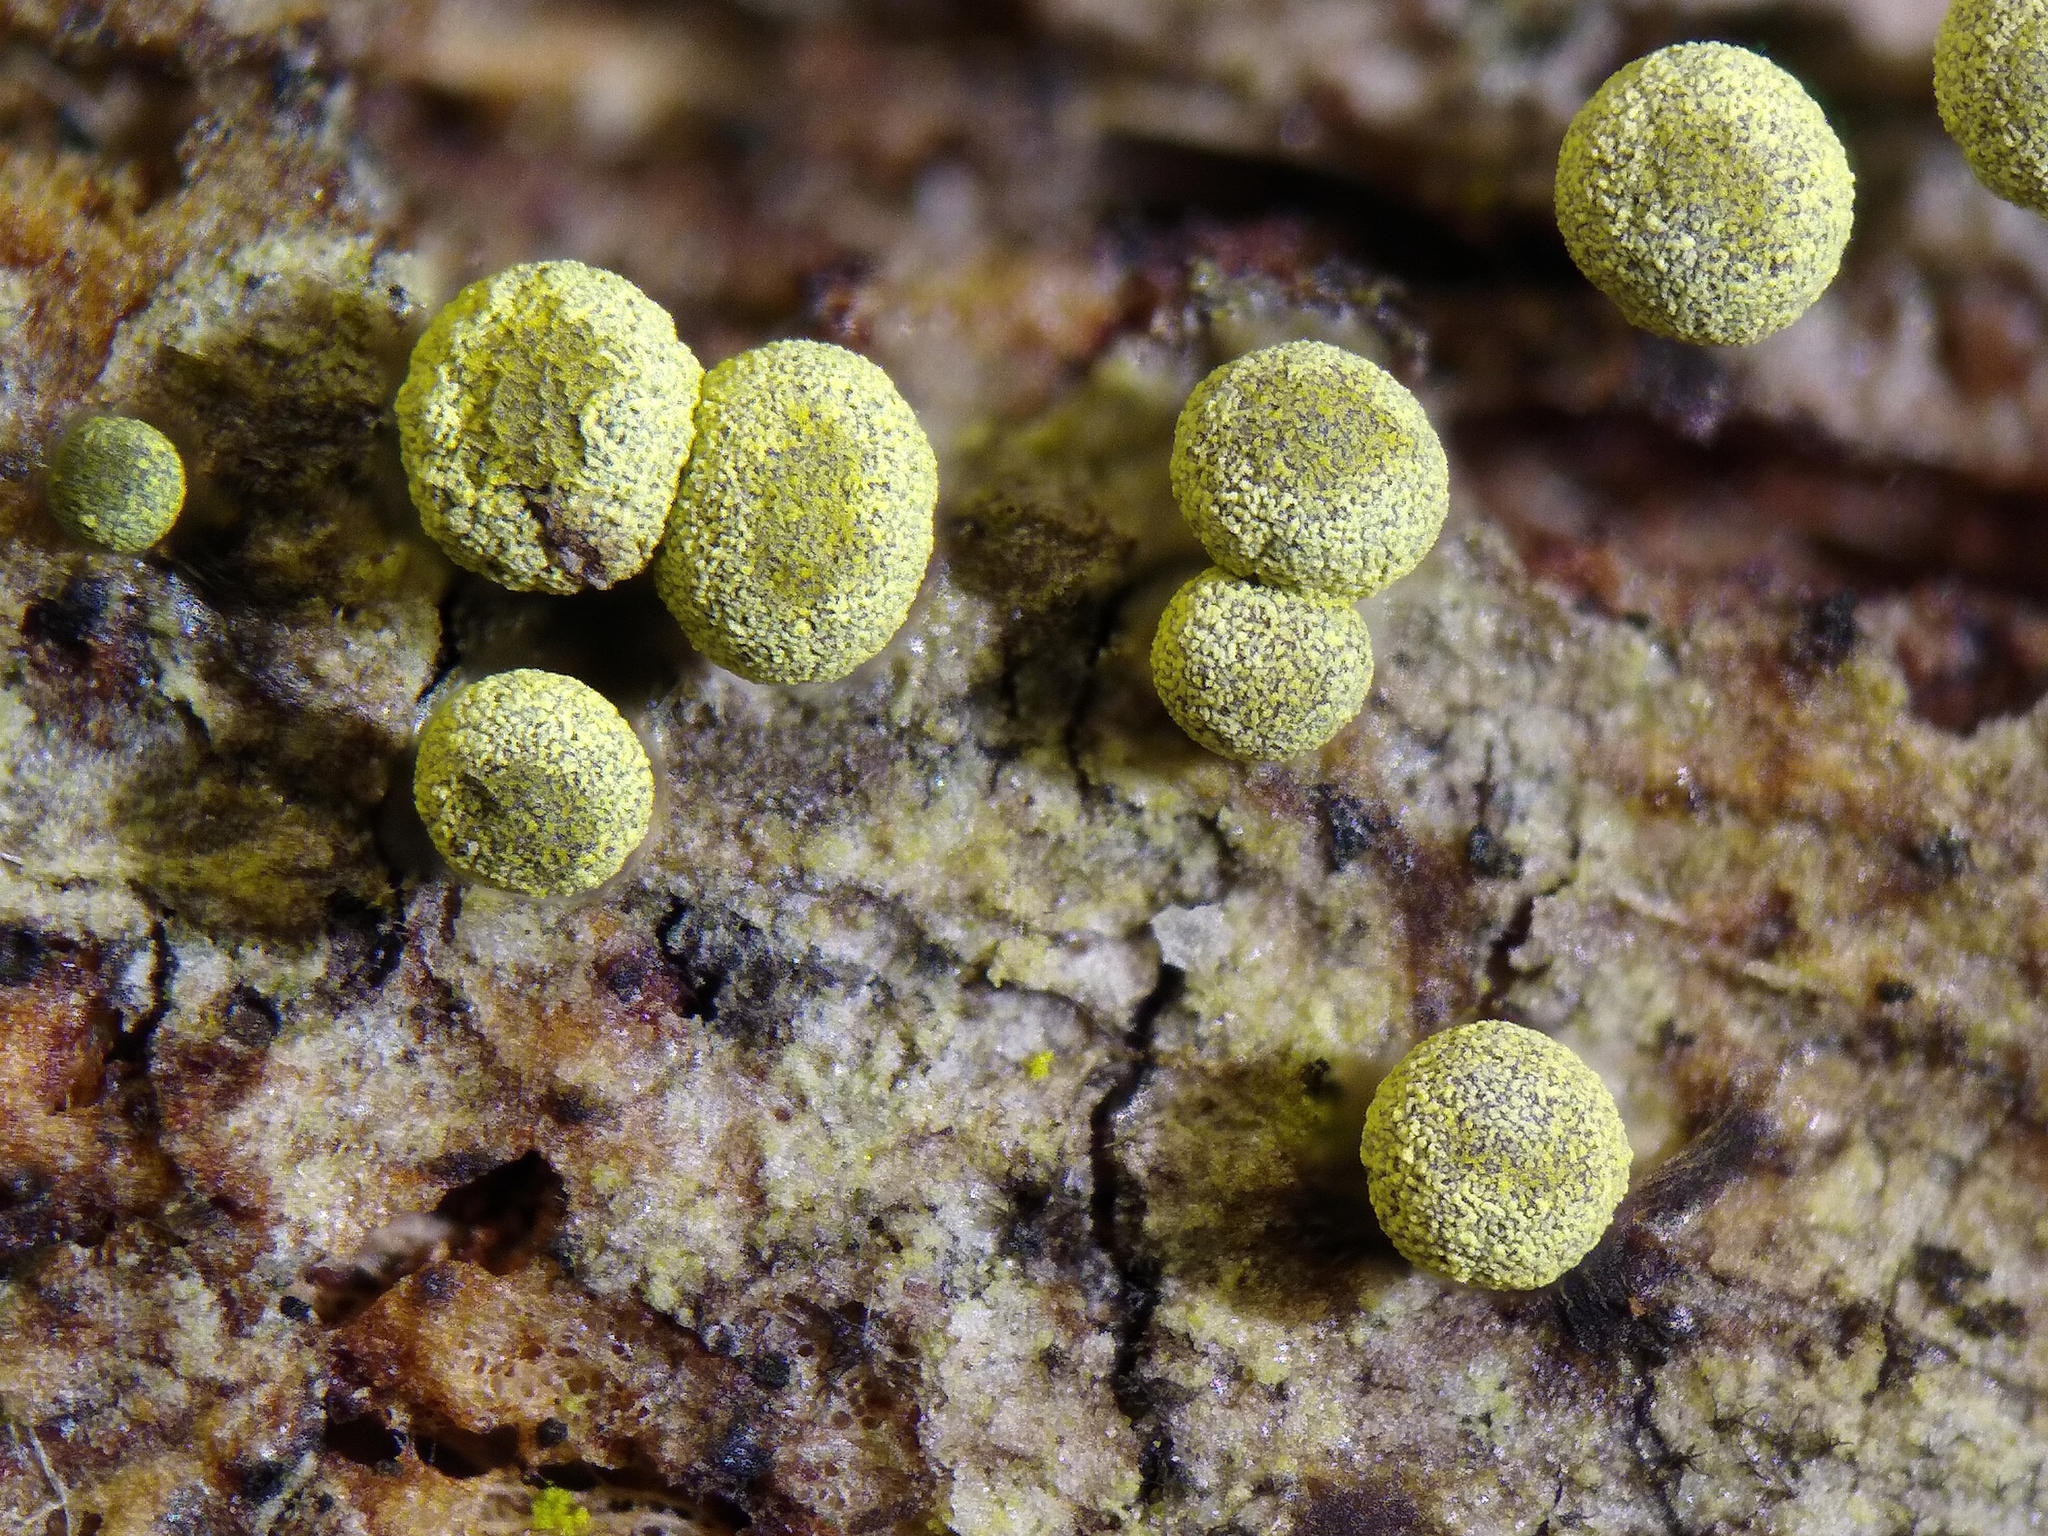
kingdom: Protozoa
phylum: Mycetozoa
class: Myxomycetes
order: Physarales
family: Physaraceae
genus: Physarum
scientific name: Physarum oblatum
